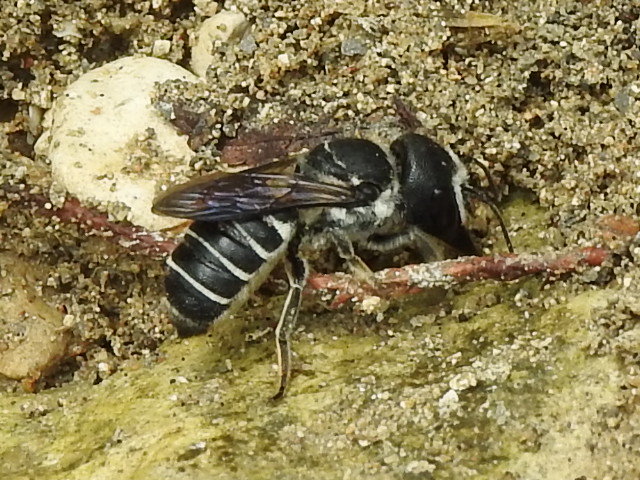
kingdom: Animalia
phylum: Arthropoda
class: Insecta
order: Hymenoptera
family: Megachilidae
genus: Megachile
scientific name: Megachile rugifrons
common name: Rugose-fronted resin bee
